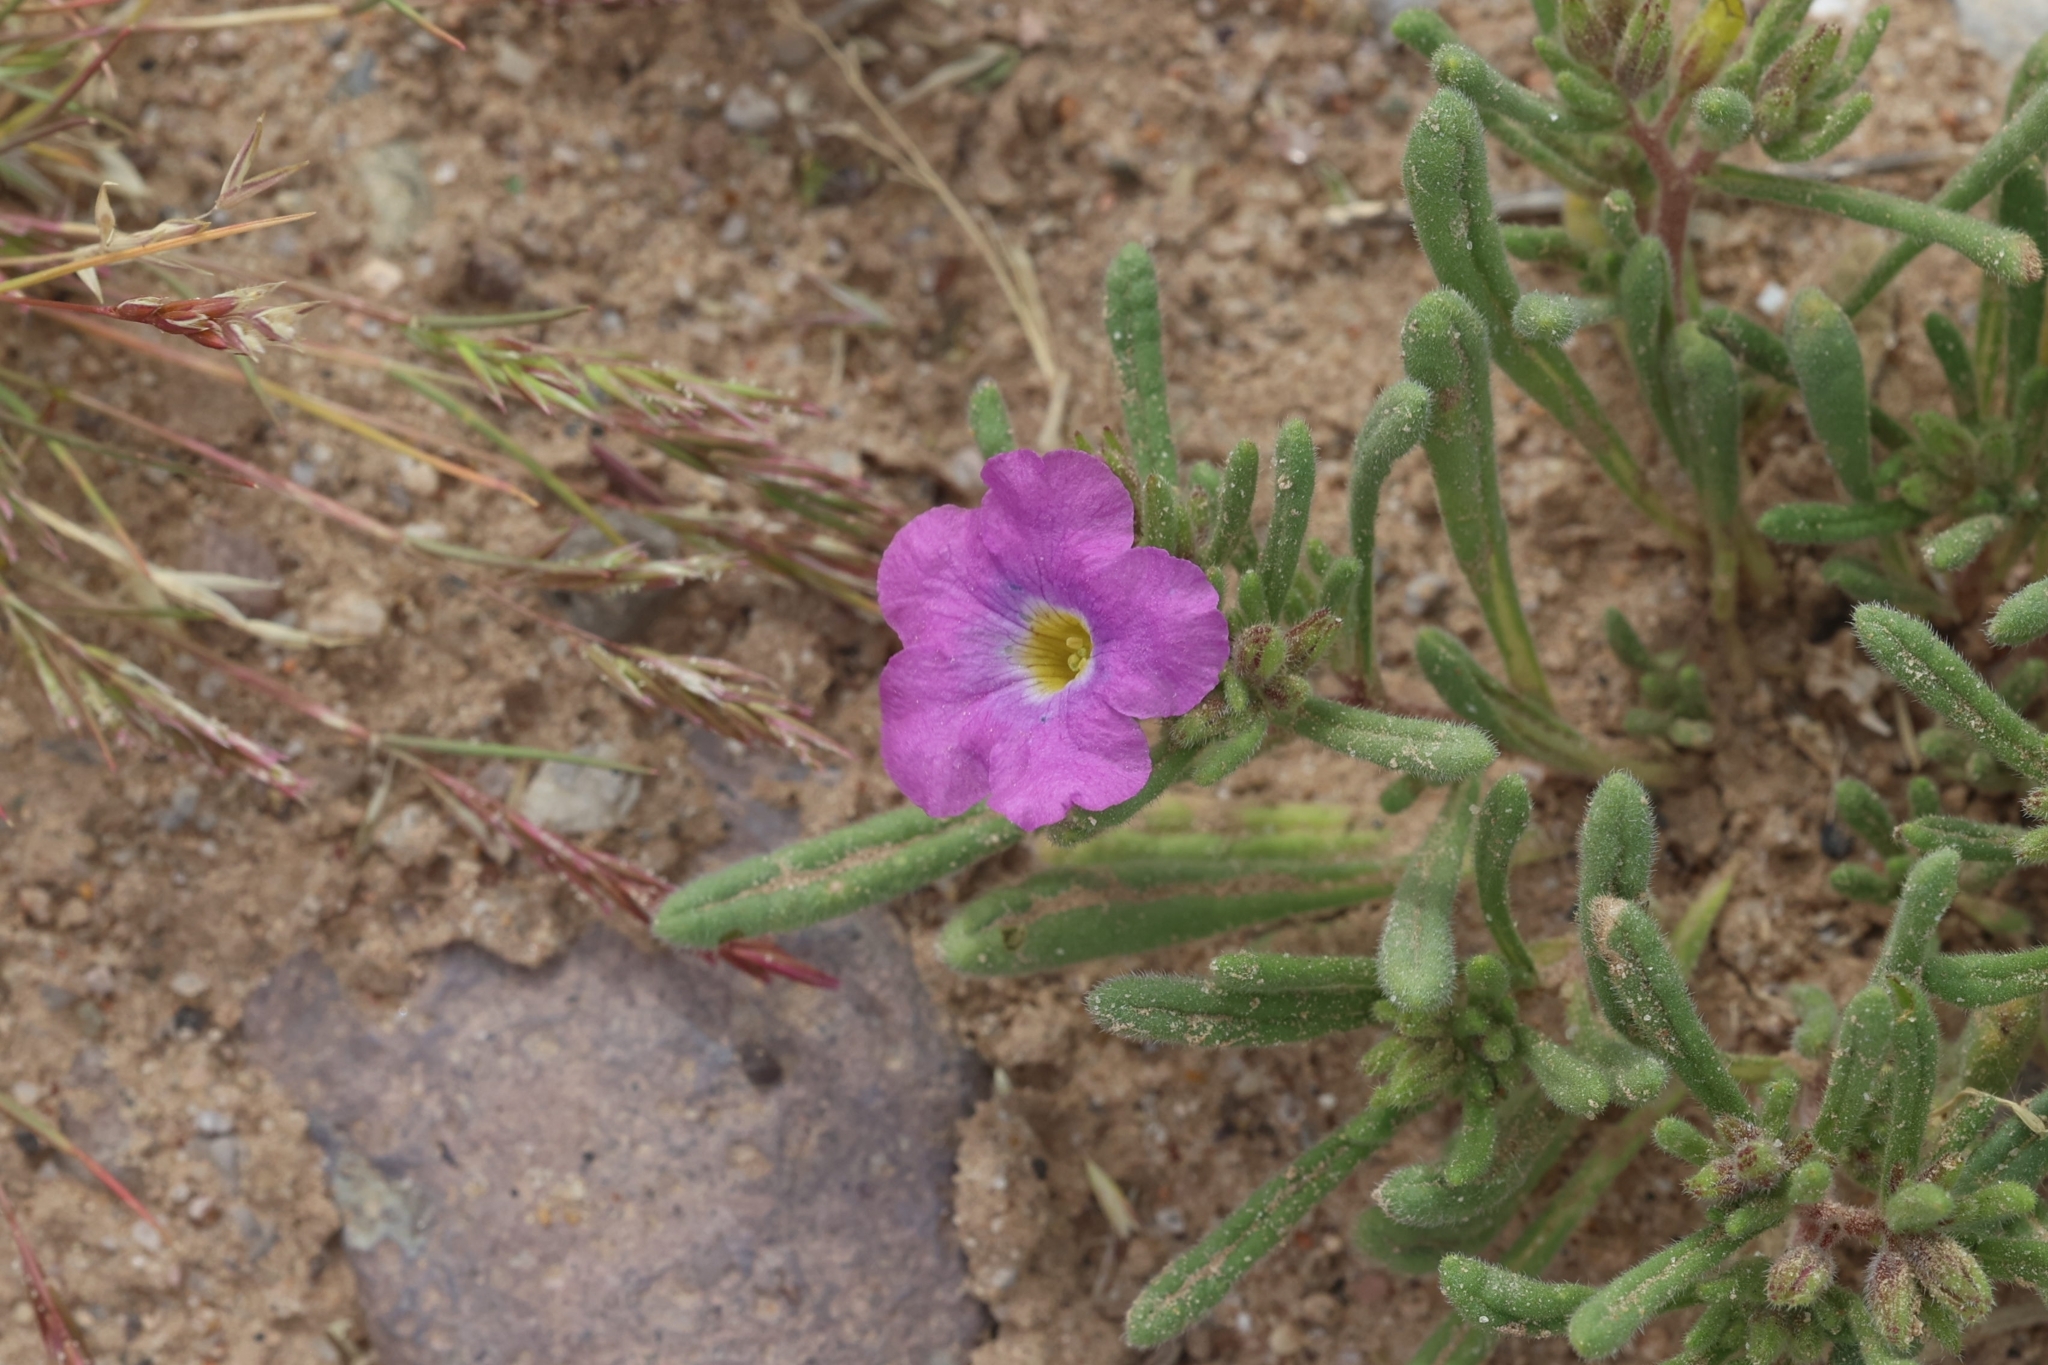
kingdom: Plantae
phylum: Tracheophyta
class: Magnoliopsida
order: Boraginales
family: Namaceae
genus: Nama
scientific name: Nama hispida
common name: Bristly nama
